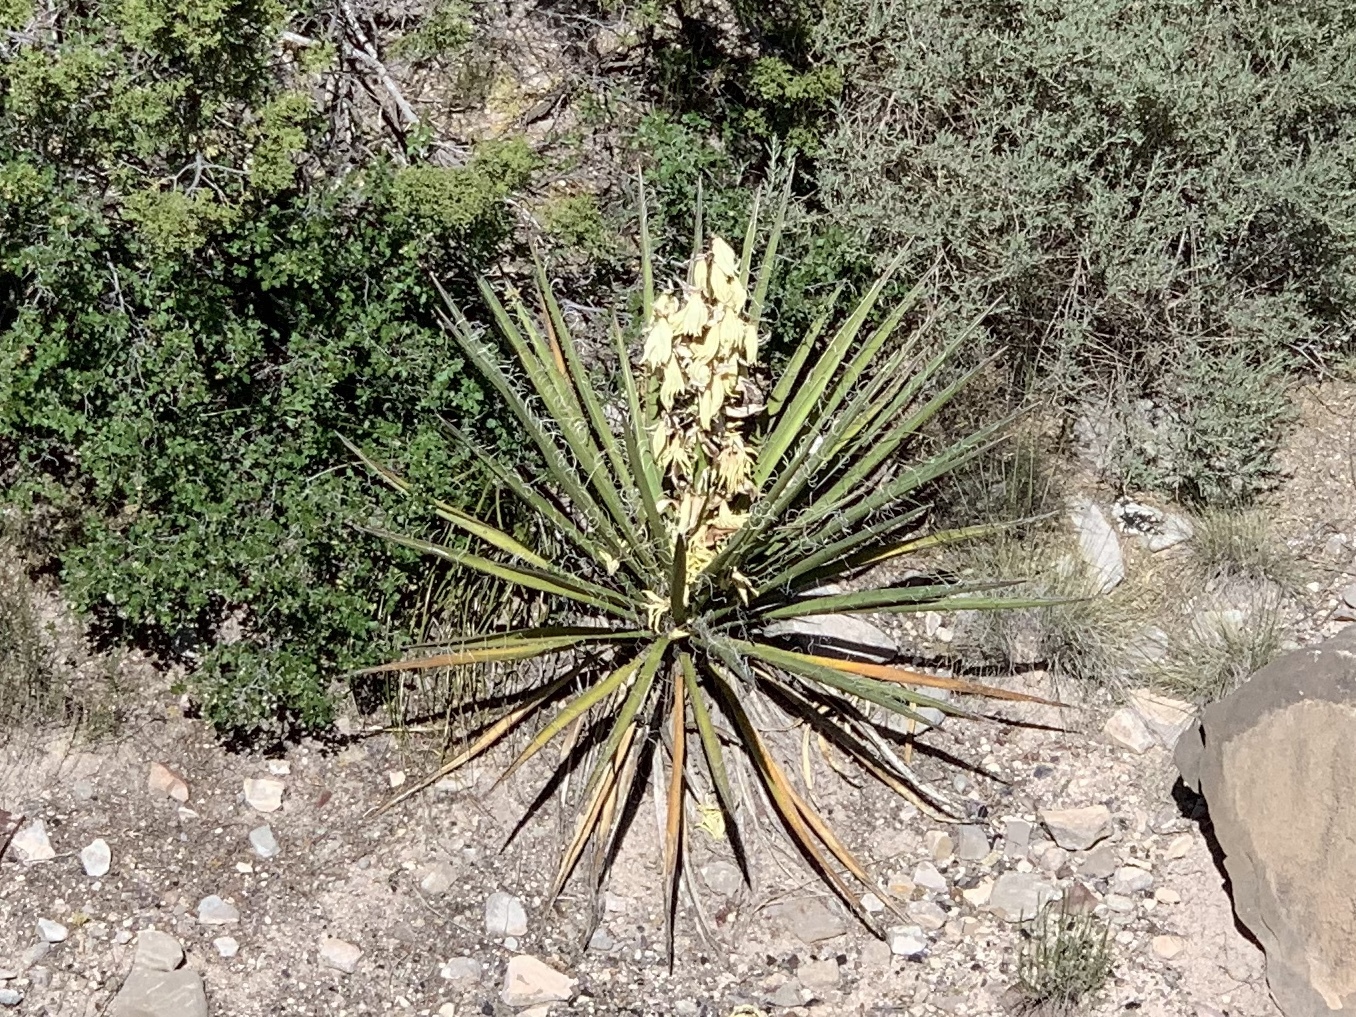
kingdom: Plantae
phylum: Tracheophyta
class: Liliopsida
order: Asparagales
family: Asparagaceae
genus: Yucca
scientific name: Yucca baccata
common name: Banana yucca
